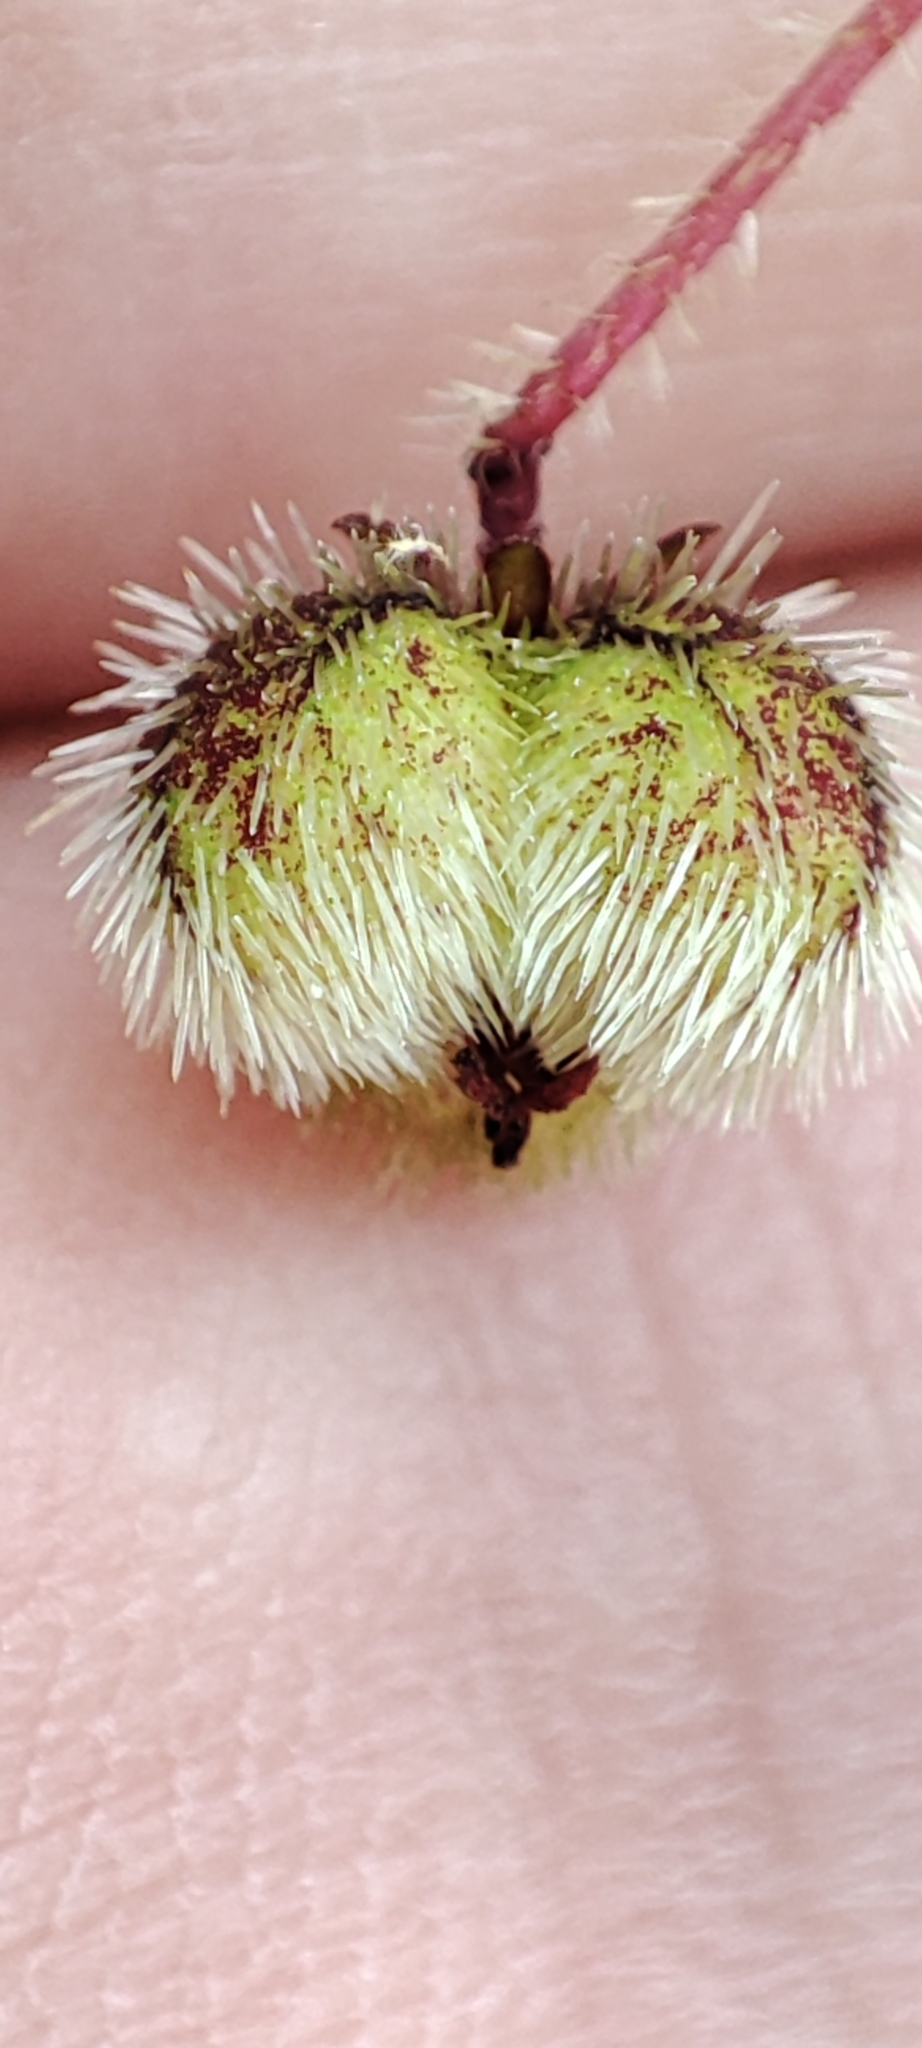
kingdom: Plantae
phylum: Tracheophyta
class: Magnoliopsida
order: Malpighiales
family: Euphorbiaceae
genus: Tragia
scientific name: Tragia volubilis
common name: Twining cow-itch
